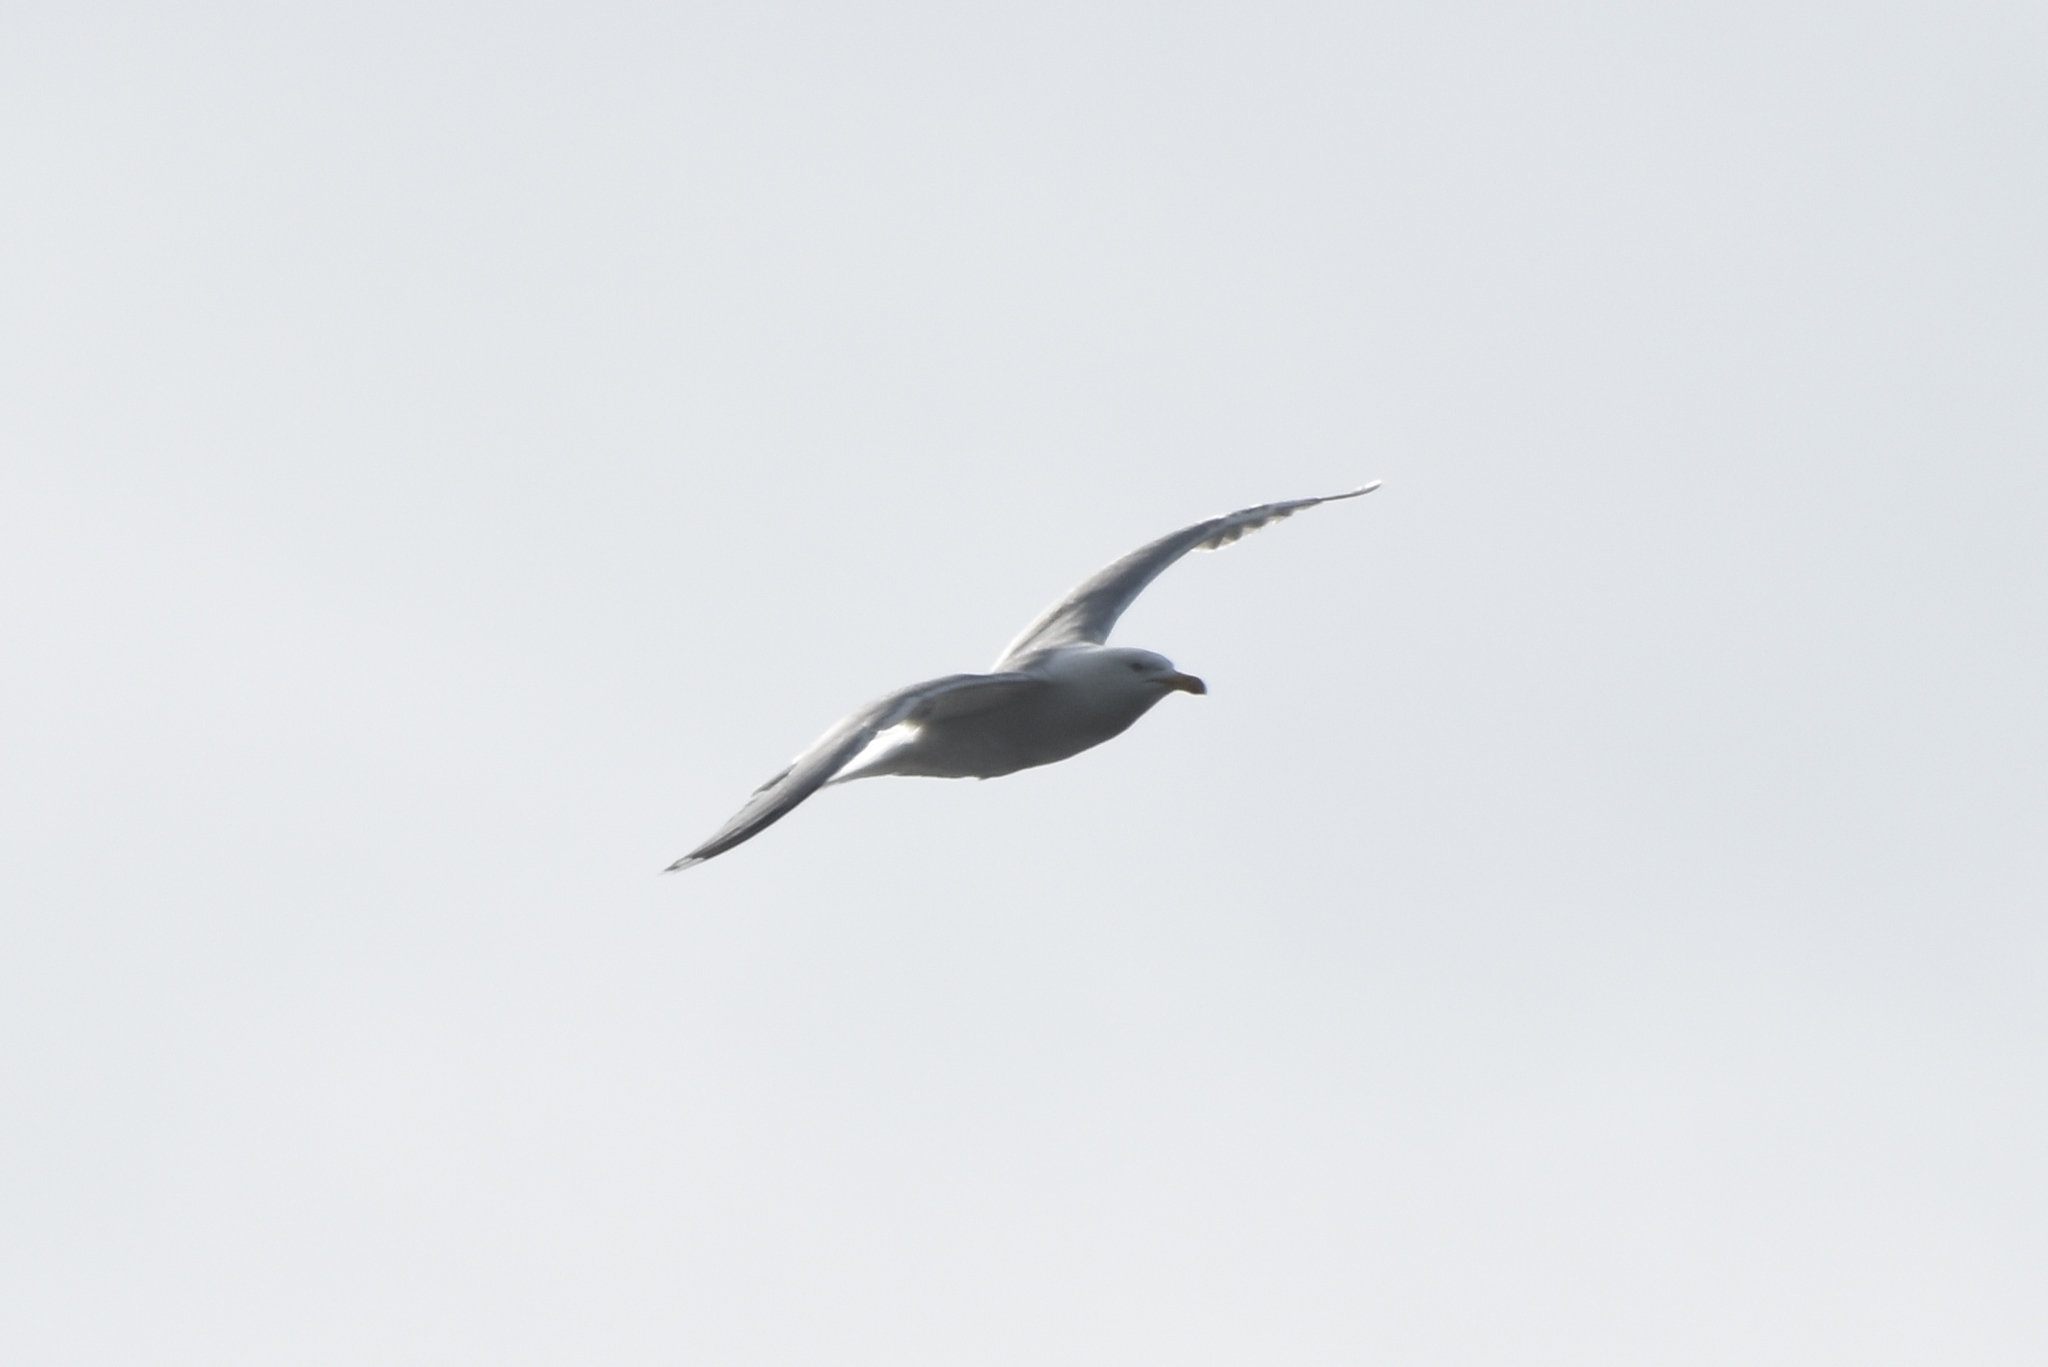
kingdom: Animalia
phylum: Chordata
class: Aves
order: Charadriiformes
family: Laridae
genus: Larus
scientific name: Larus argentatus
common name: Herring gull
